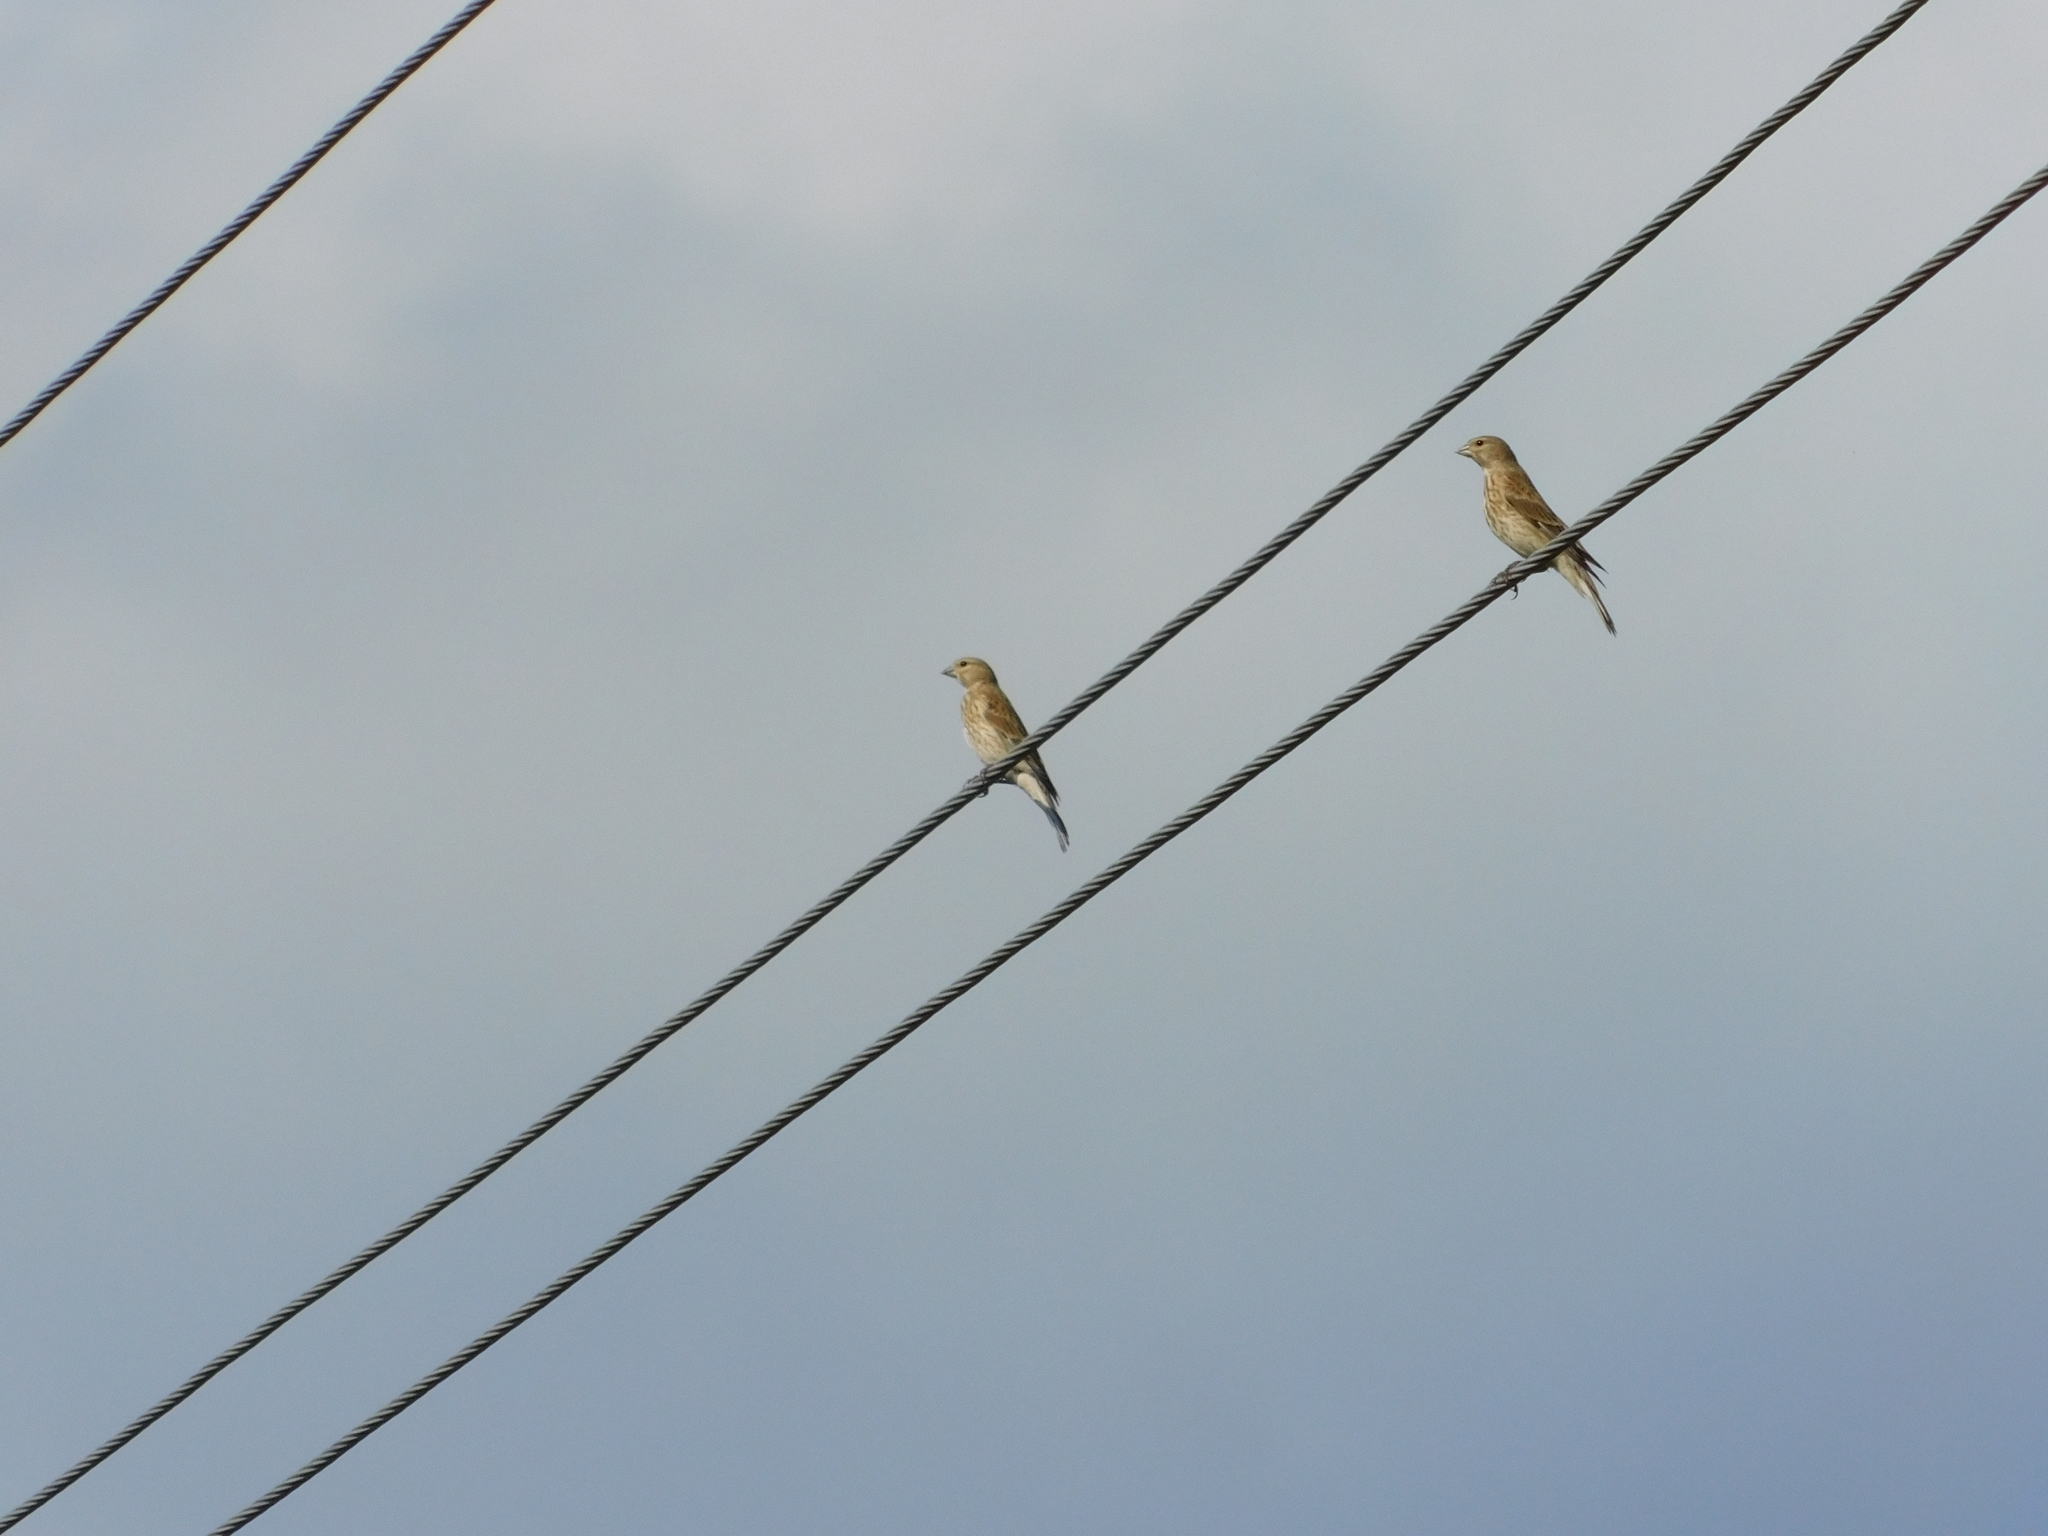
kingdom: Animalia
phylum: Chordata
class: Aves
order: Passeriformes
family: Fringillidae
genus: Linaria
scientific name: Linaria cannabina
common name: Common linnet
